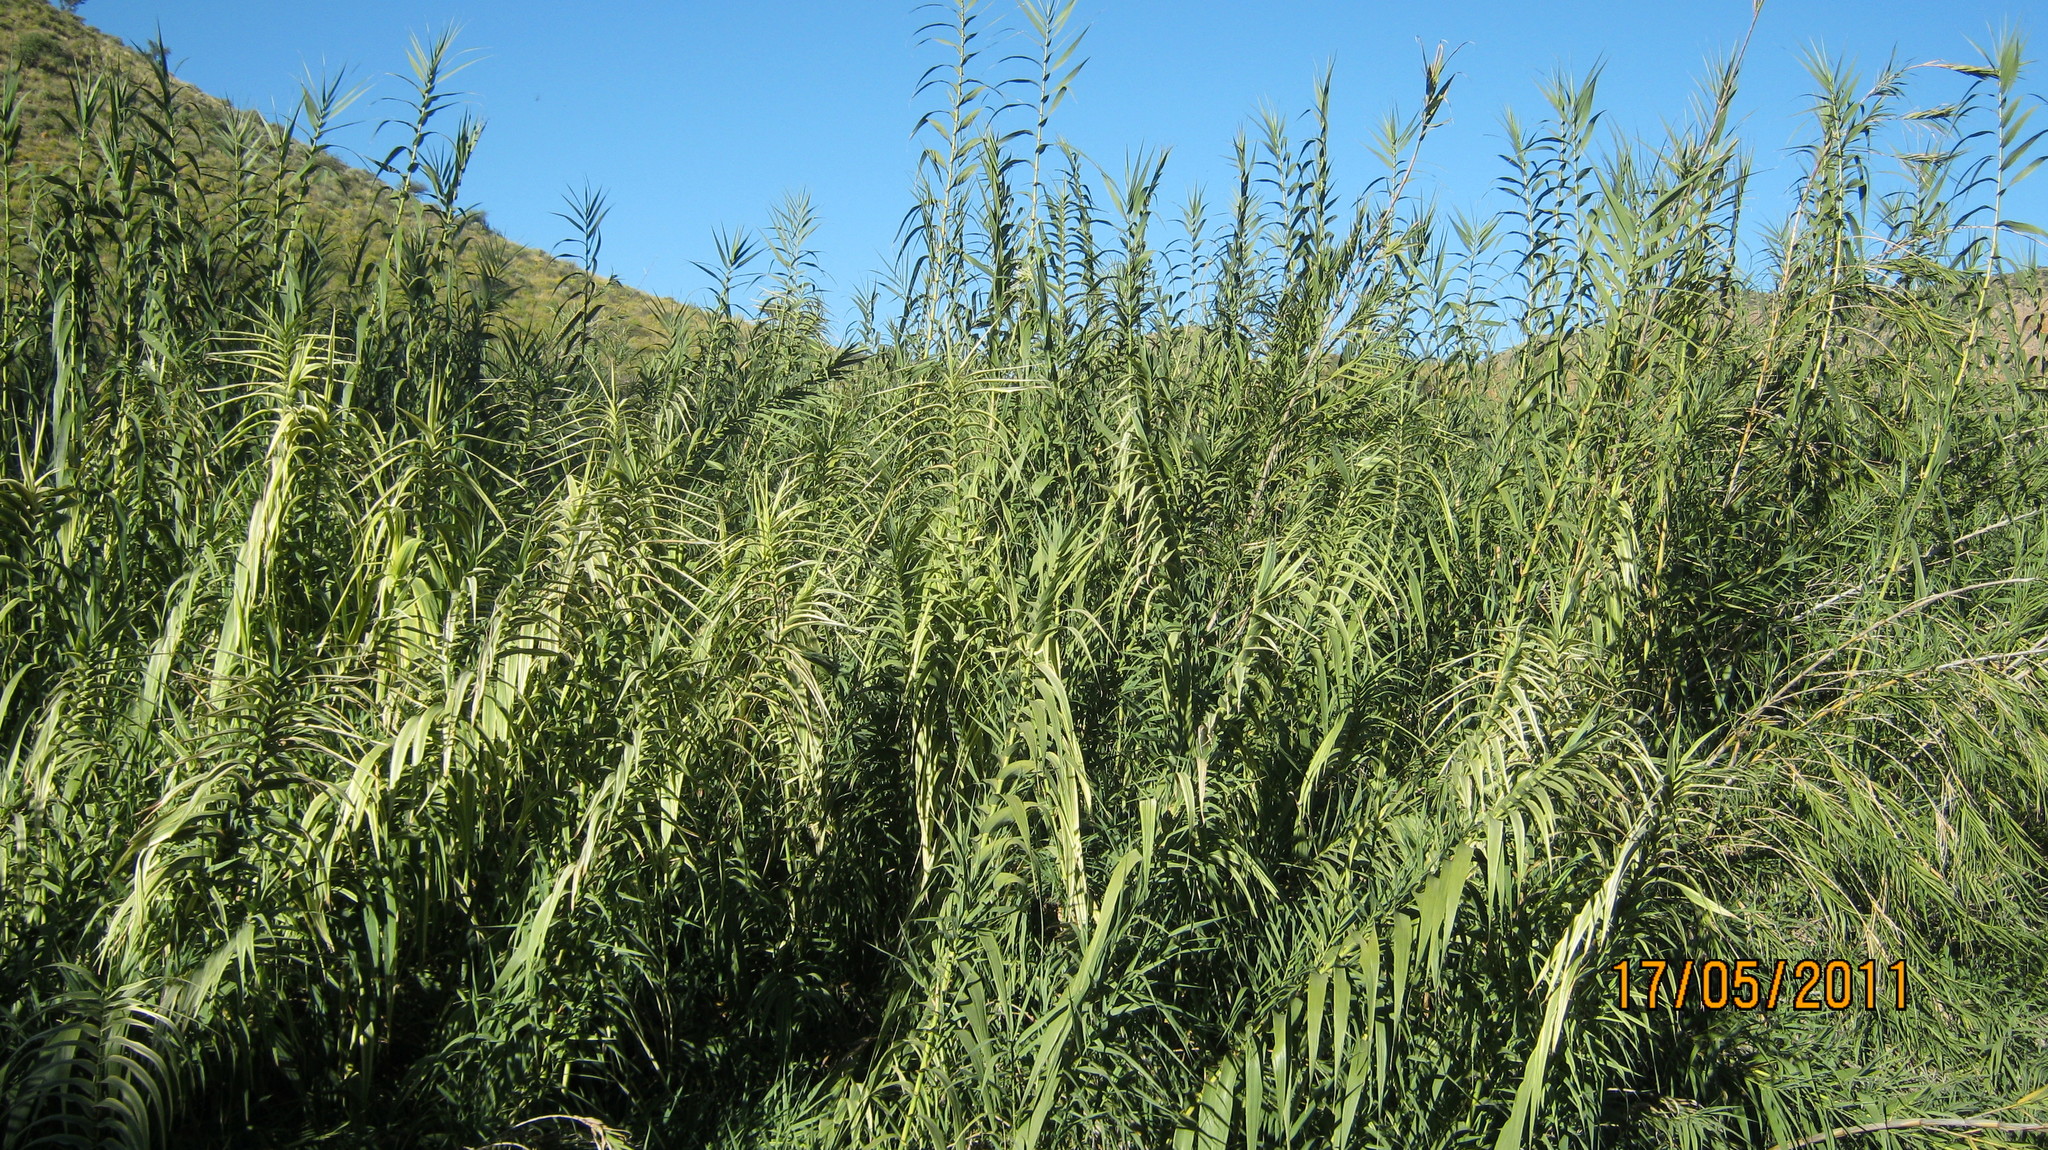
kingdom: Plantae
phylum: Tracheophyta
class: Liliopsida
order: Poales
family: Poaceae
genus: Arundo
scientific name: Arundo donax
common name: Giant reed
